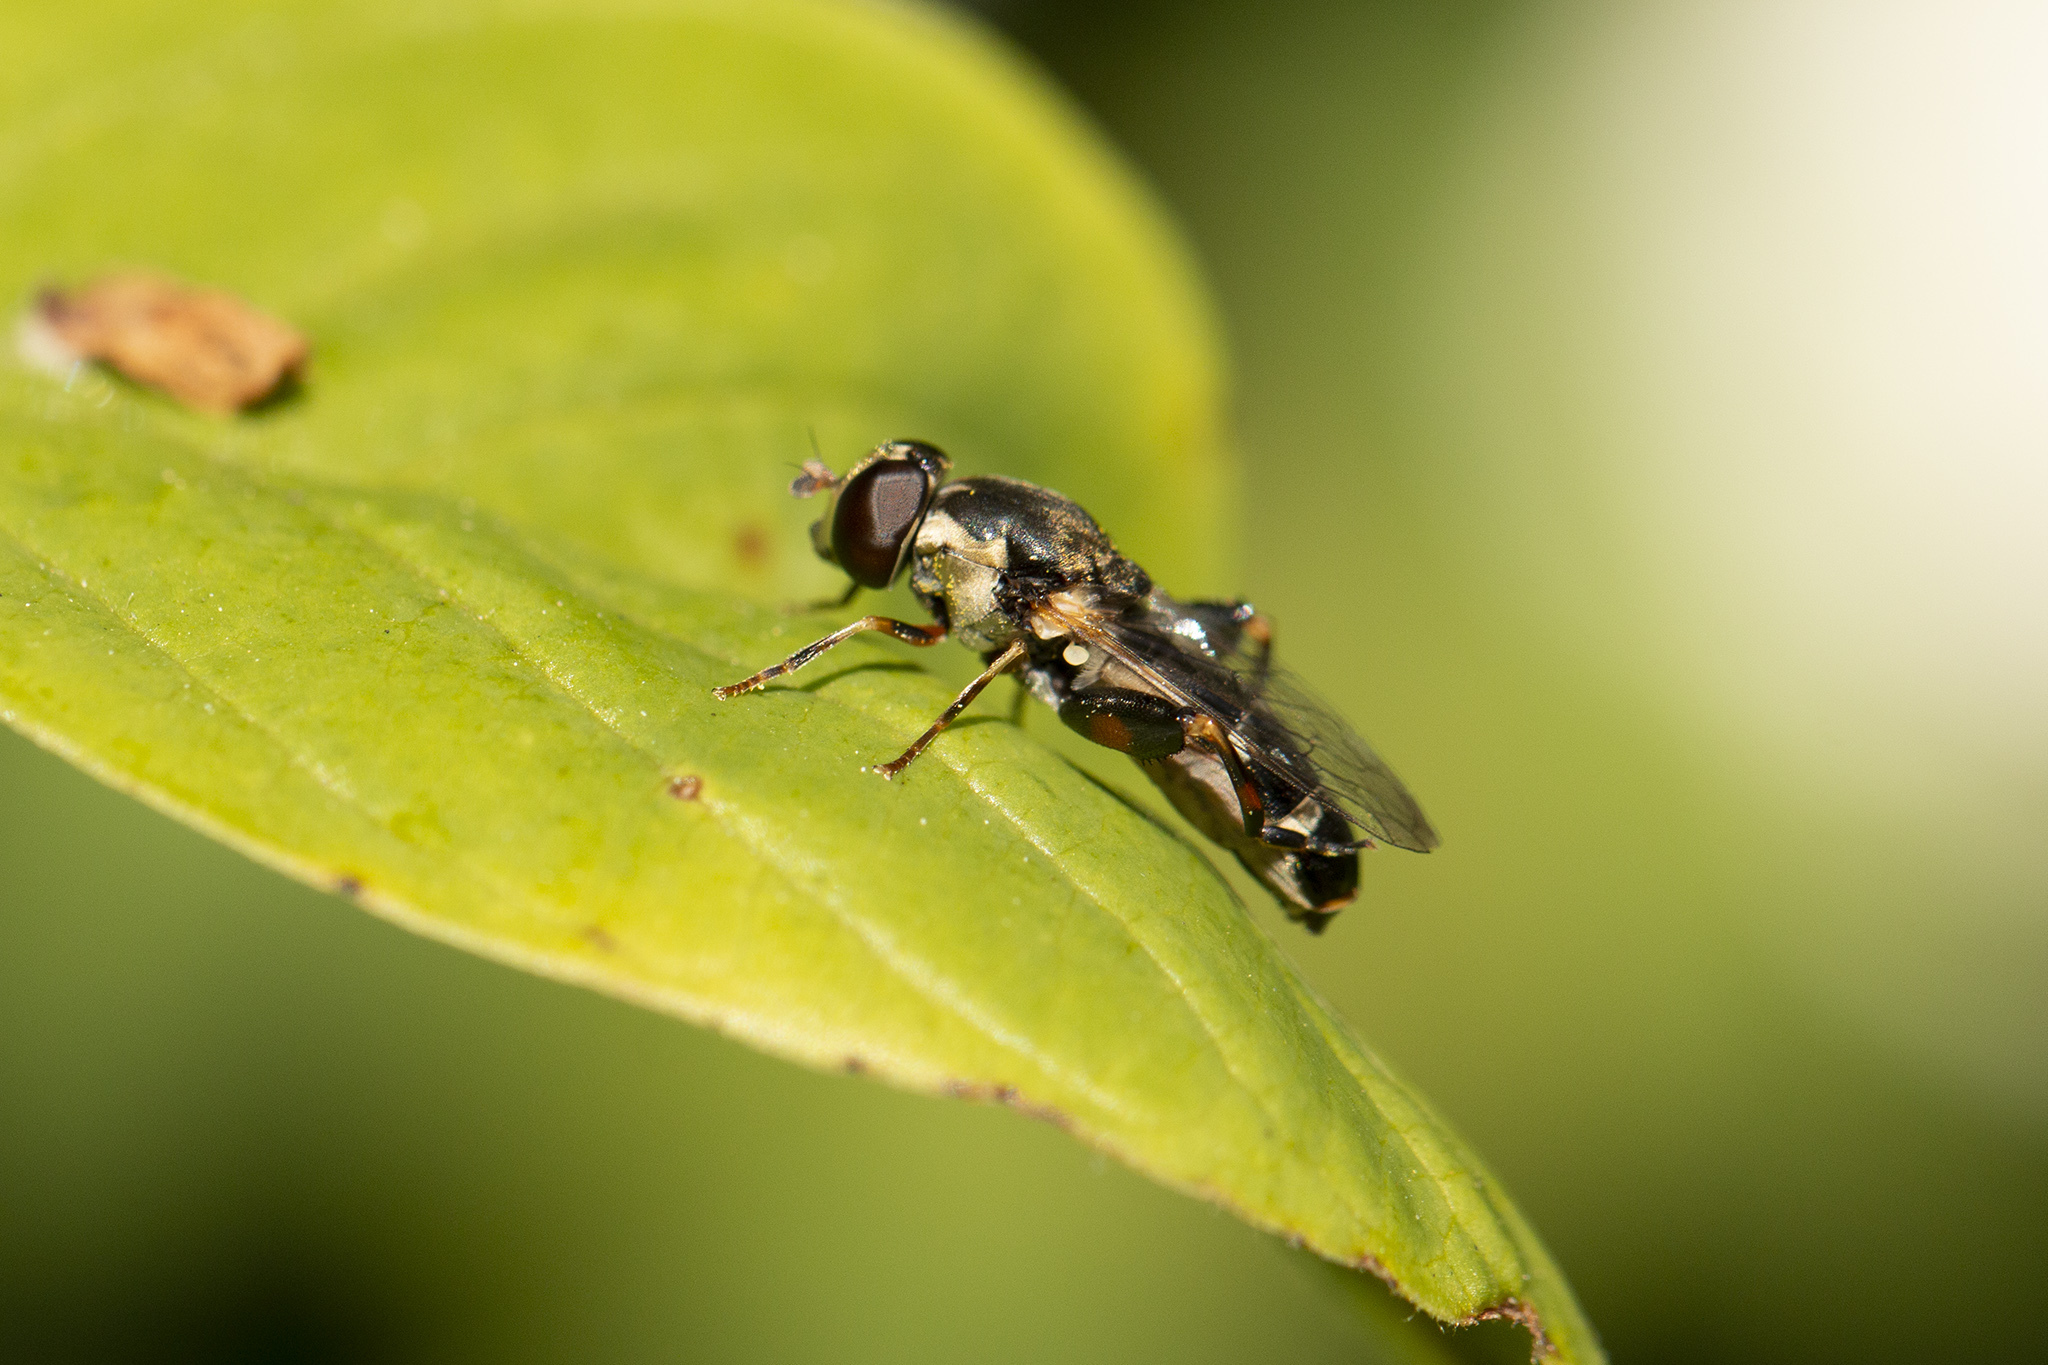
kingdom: Animalia
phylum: Arthropoda
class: Insecta
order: Diptera
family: Syrphidae
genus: Syritta
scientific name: Syritta pipiens
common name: Hover fly
